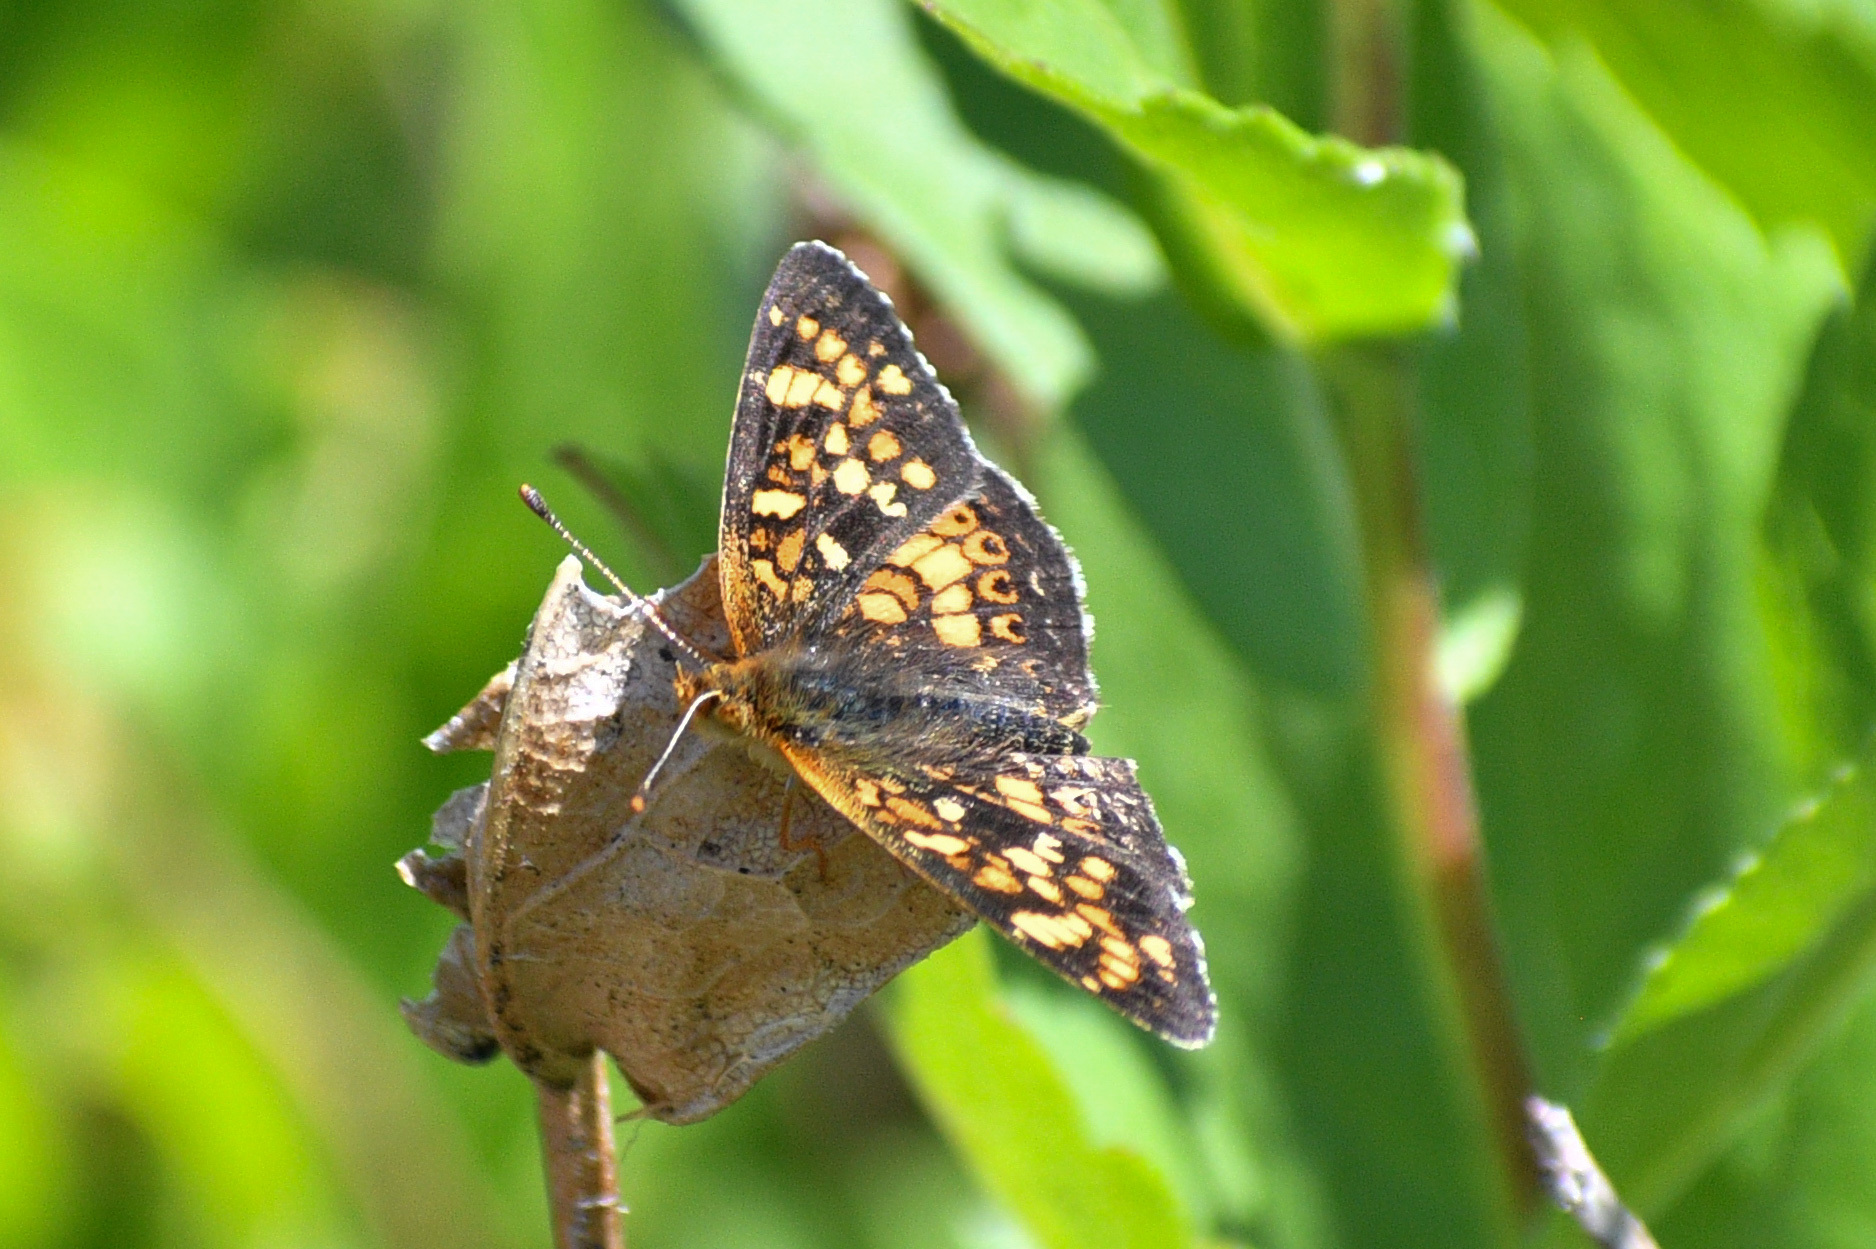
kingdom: Animalia
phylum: Arthropoda
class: Insecta
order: Lepidoptera
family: Nymphalidae
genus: Phyciodes
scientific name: Phyciodes tharos
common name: Pearl crescent
